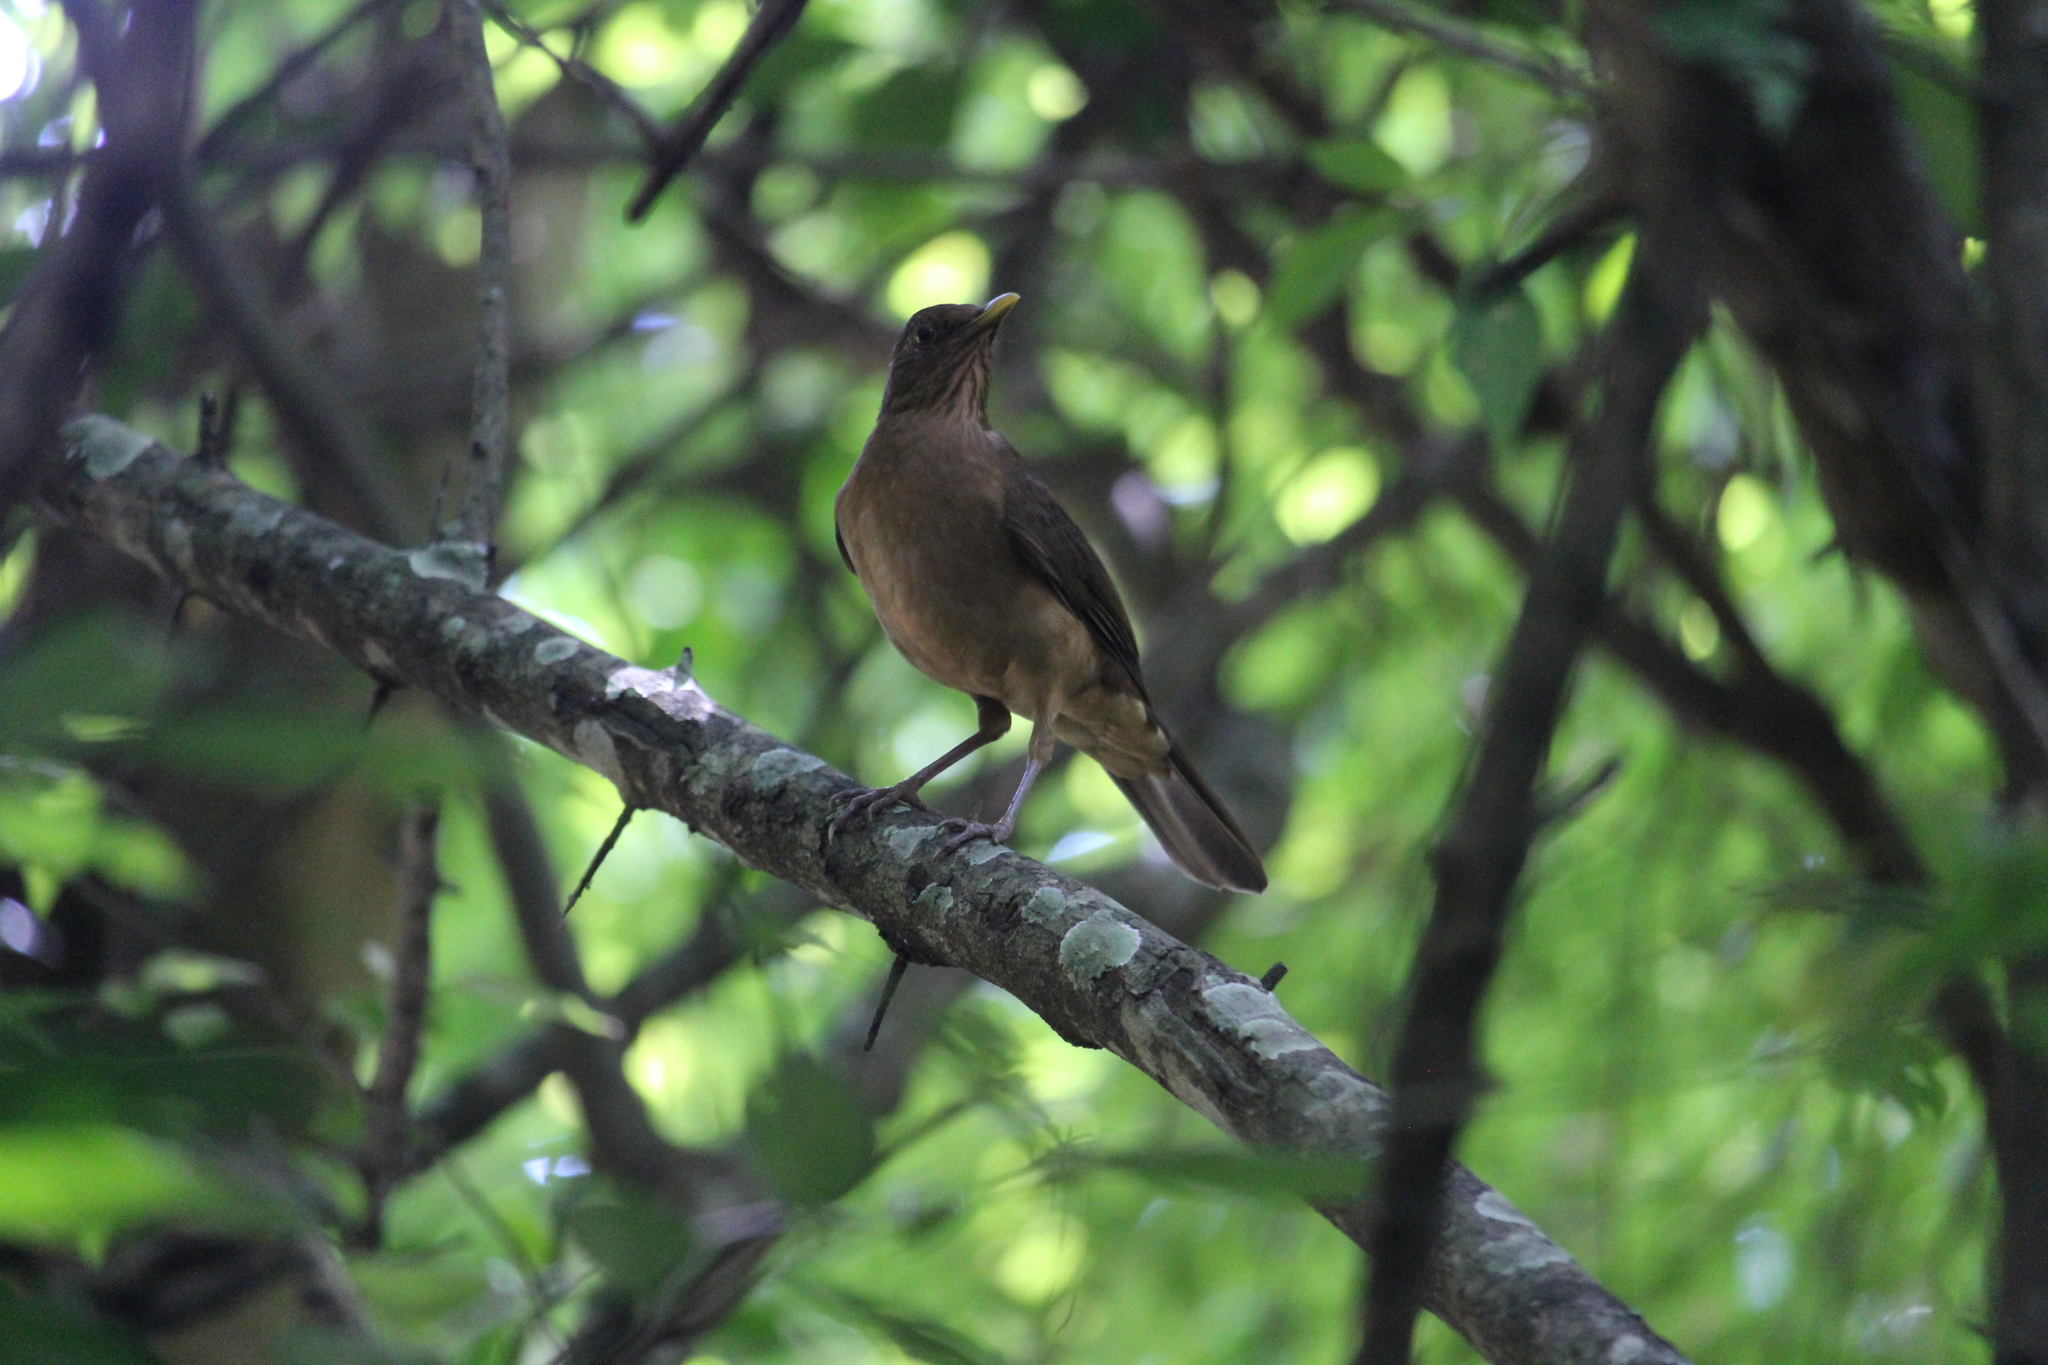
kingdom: Animalia
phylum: Chordata
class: Aves
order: Passeriformes
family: Turdidae
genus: Turdus
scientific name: Turdus grayi
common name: Clay-colored thrush
